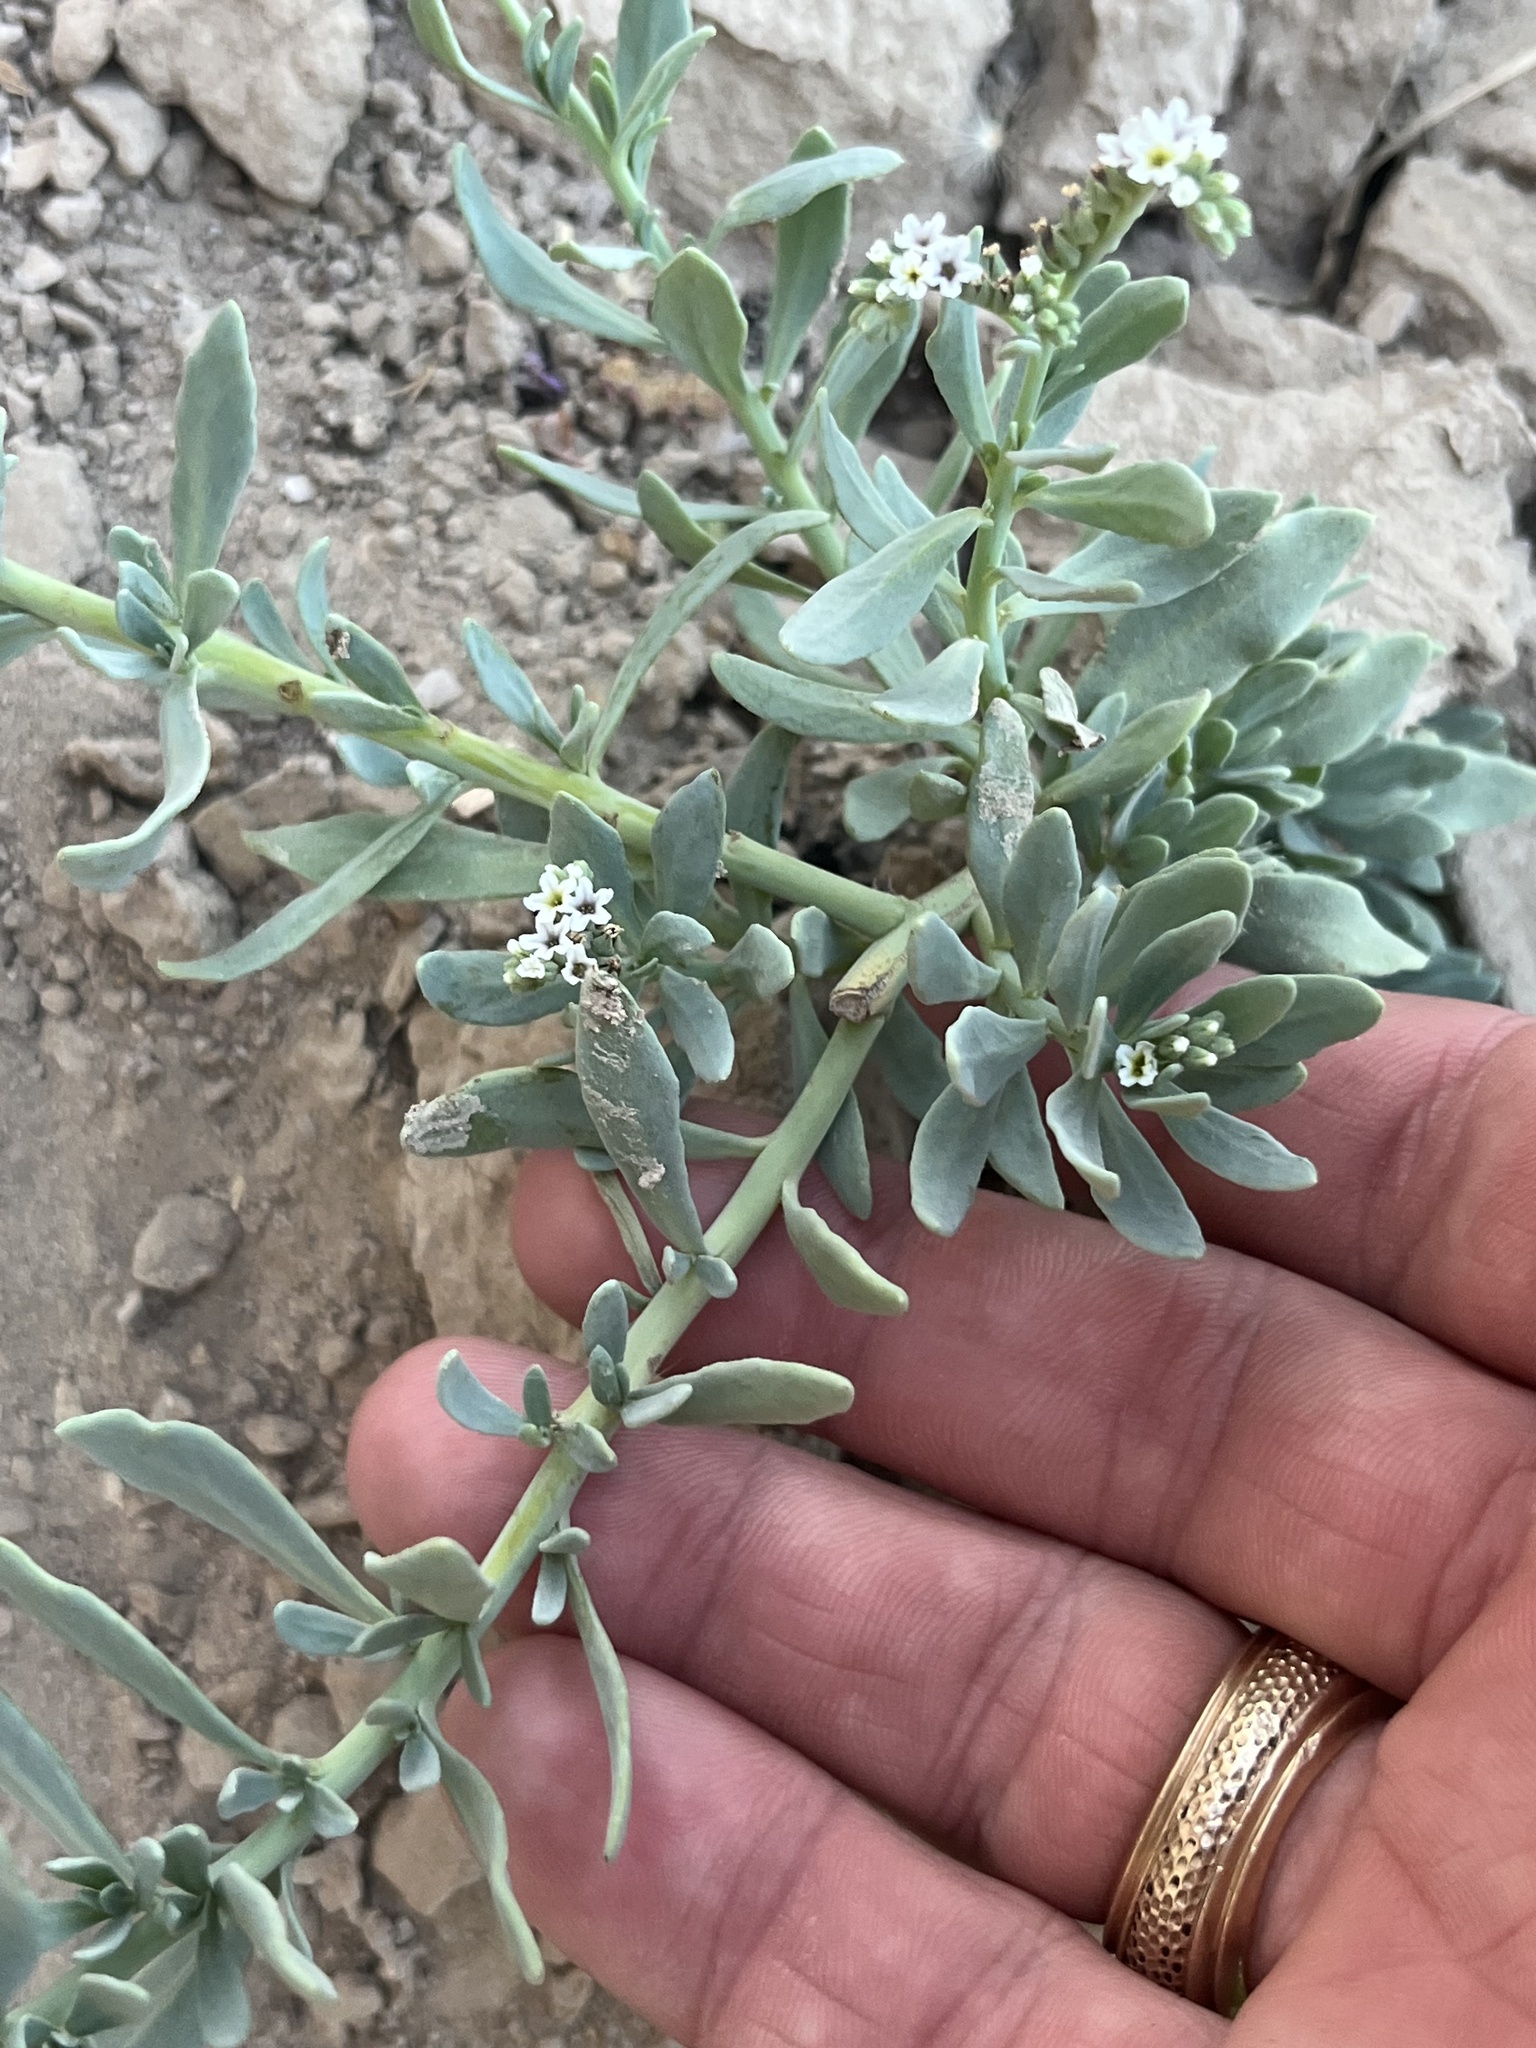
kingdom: Plantae
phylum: Tracheophyta
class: Magnoliopsida
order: Boraginales
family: Heliotropiaceae
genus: Heliotropium
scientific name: Heliotropium curassavicum
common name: Seaside heliotrope
